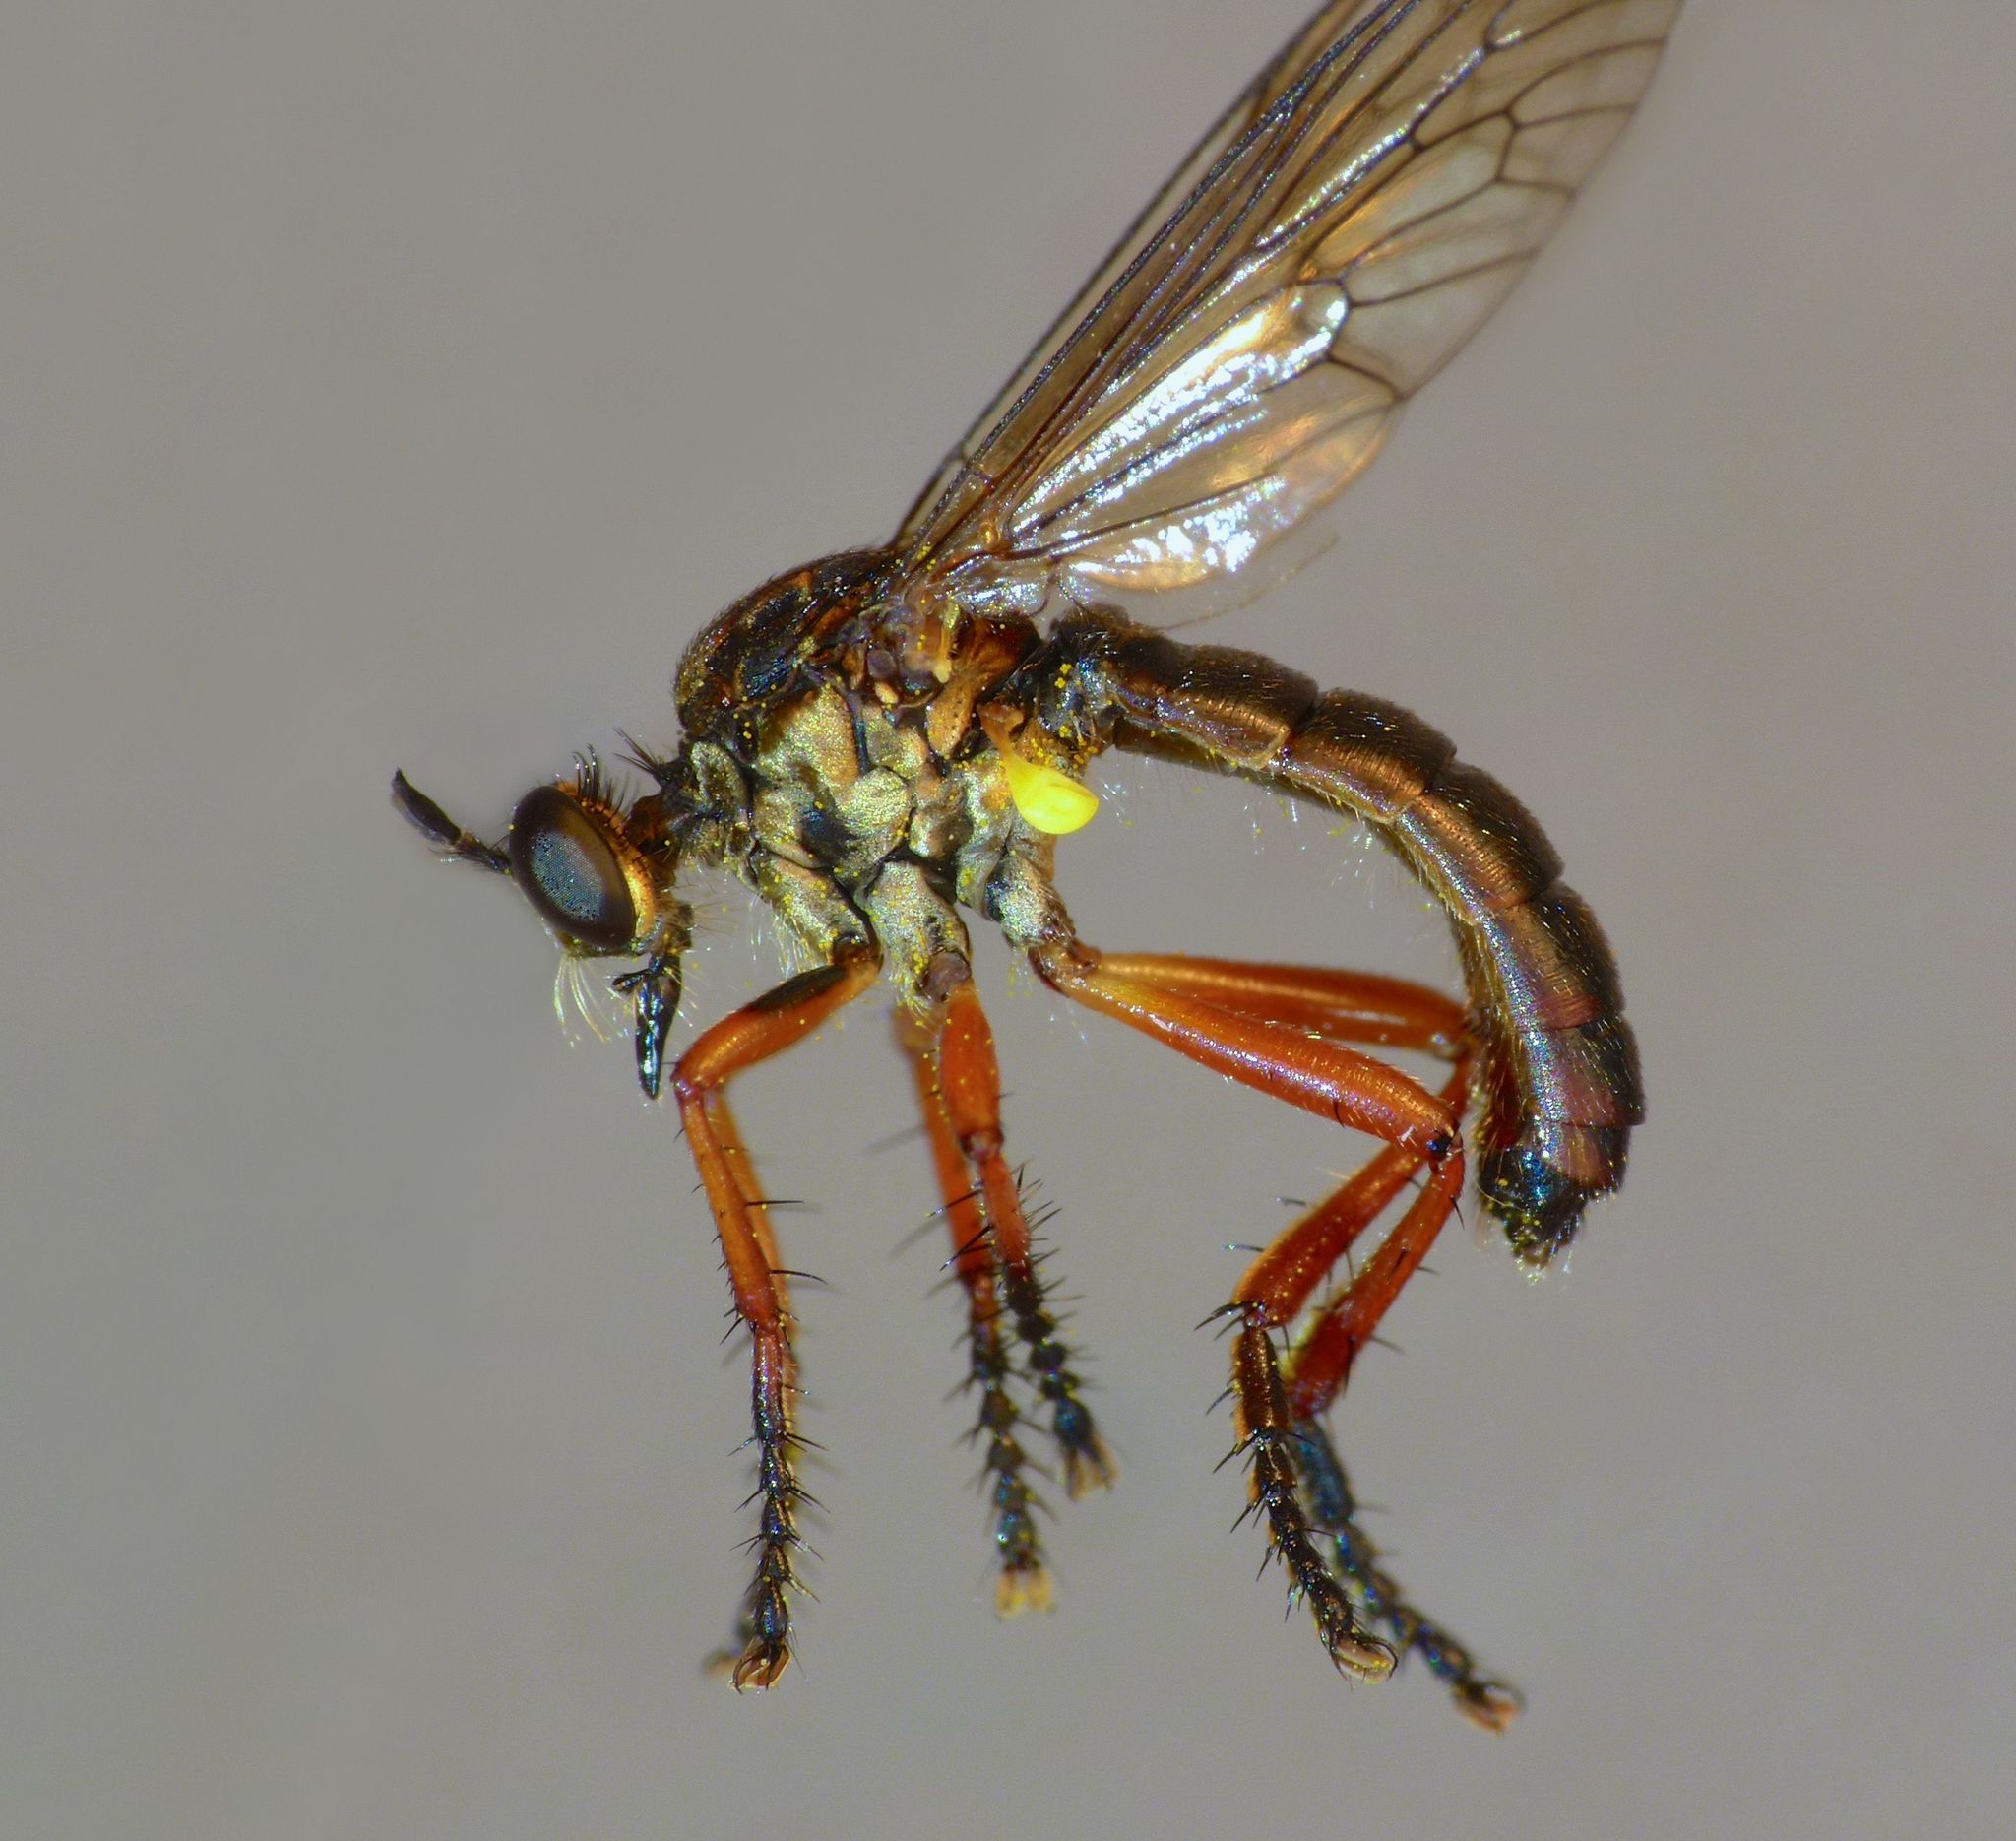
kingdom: Animalia
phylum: Arthropoda
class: Insecta
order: Diptera
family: Asilidae
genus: Saropogon
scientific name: Saropogon fugiens
